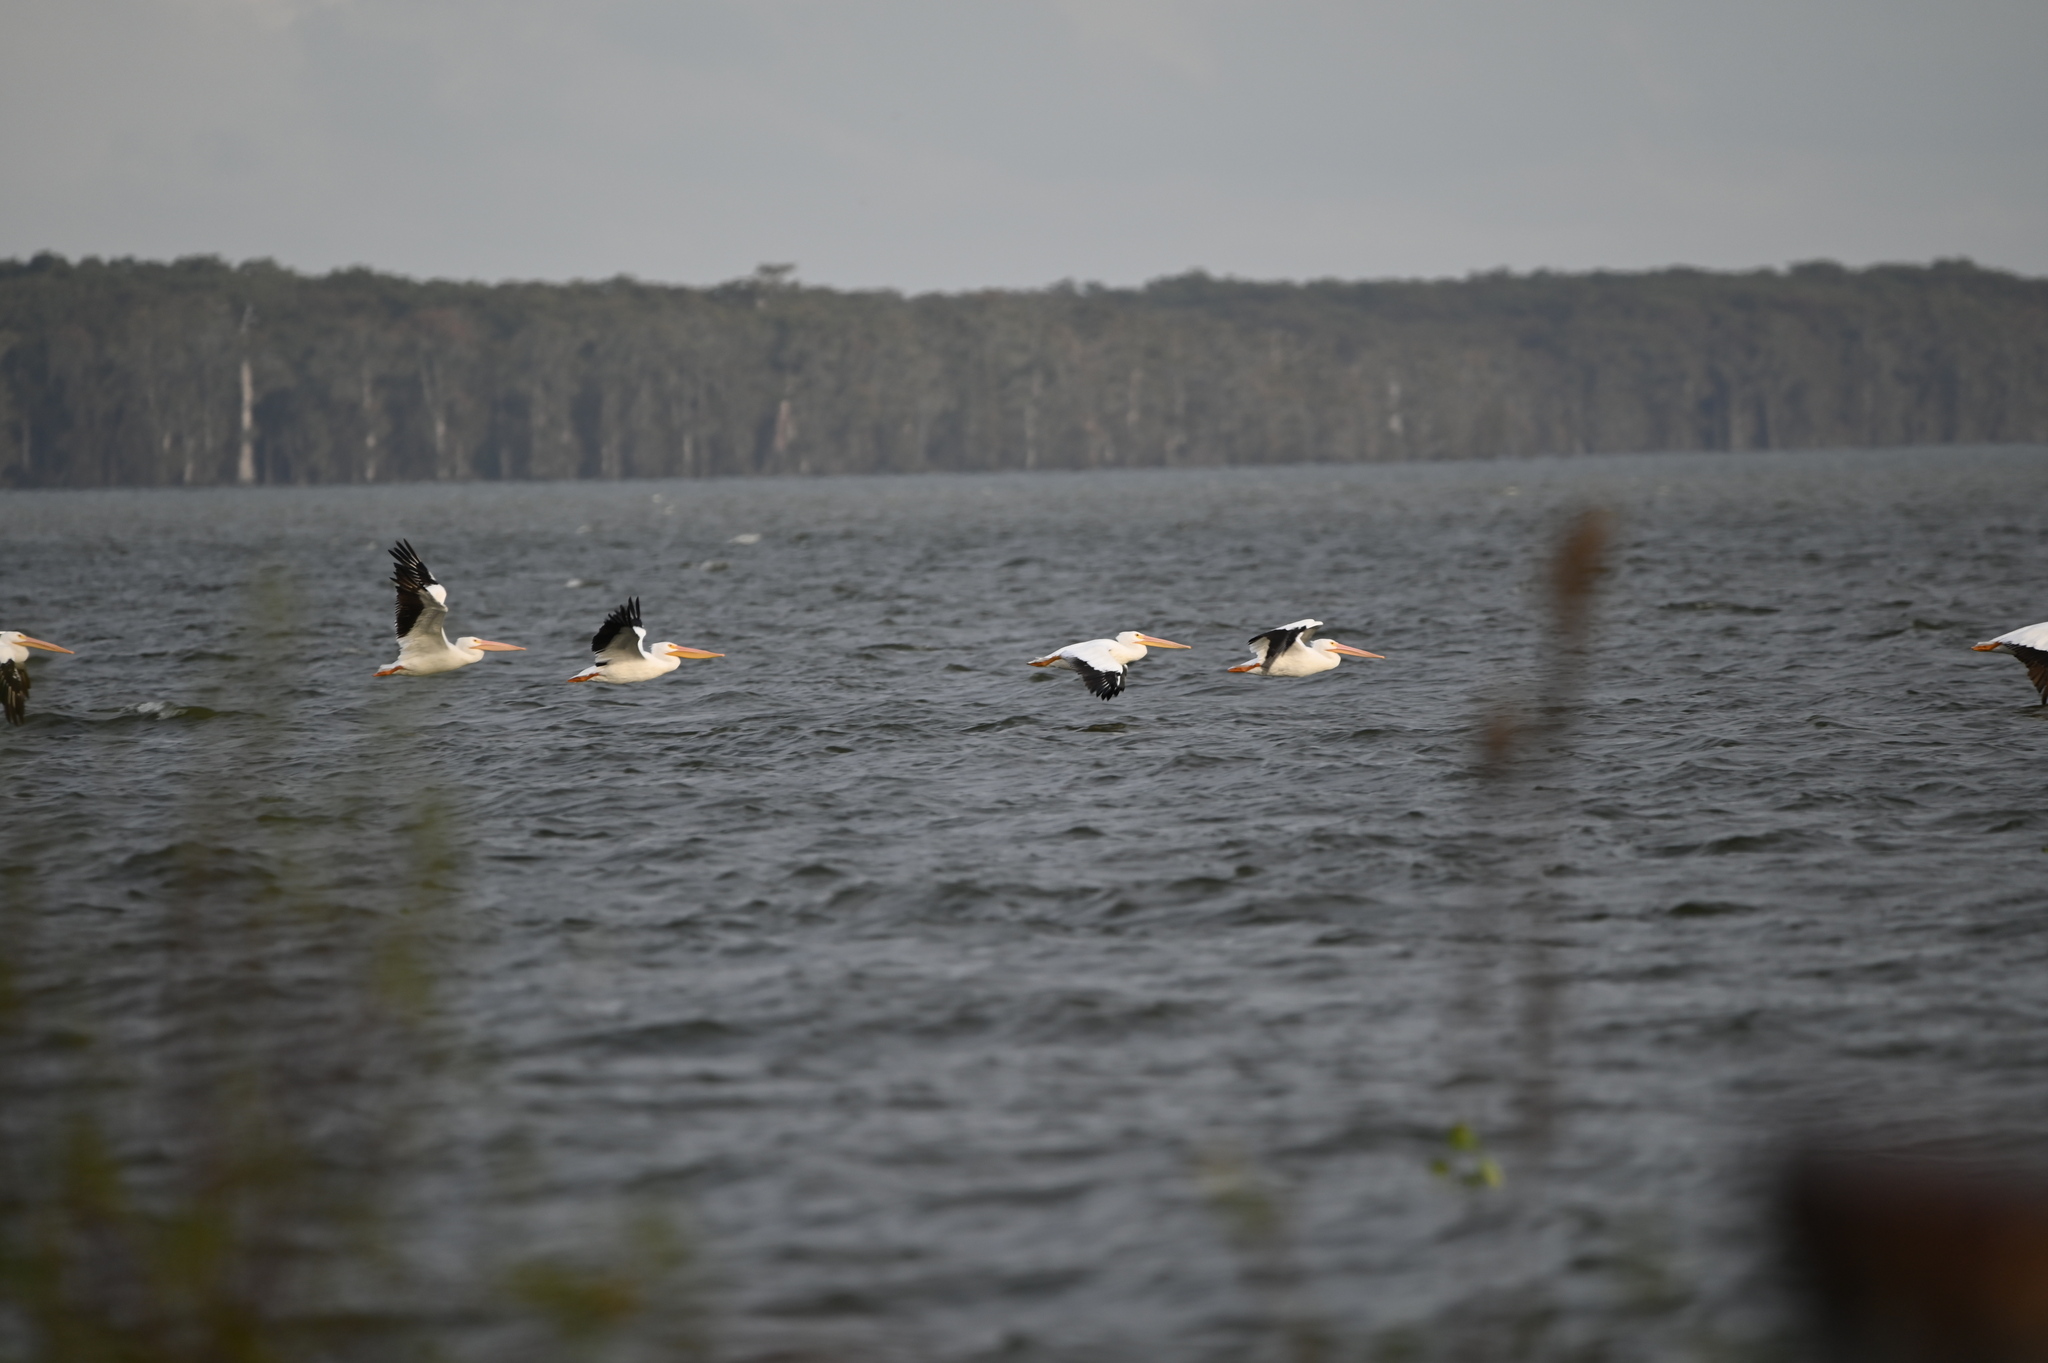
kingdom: Animalia
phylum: Chordata
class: Aves
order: Pelecaniformes
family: Pelecanidae
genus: Pelecanus
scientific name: Pelecanus erythrorhynchos
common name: American white pelican
